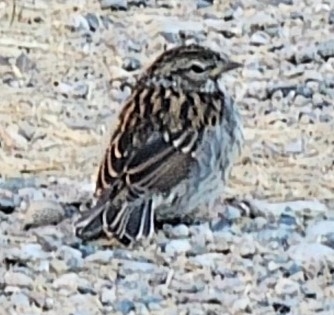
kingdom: Animalia
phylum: Chordata
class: Aves
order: Passeriformes
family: Passerellidae
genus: Spizella
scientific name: Spizella passerina
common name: Chipping sparrow
